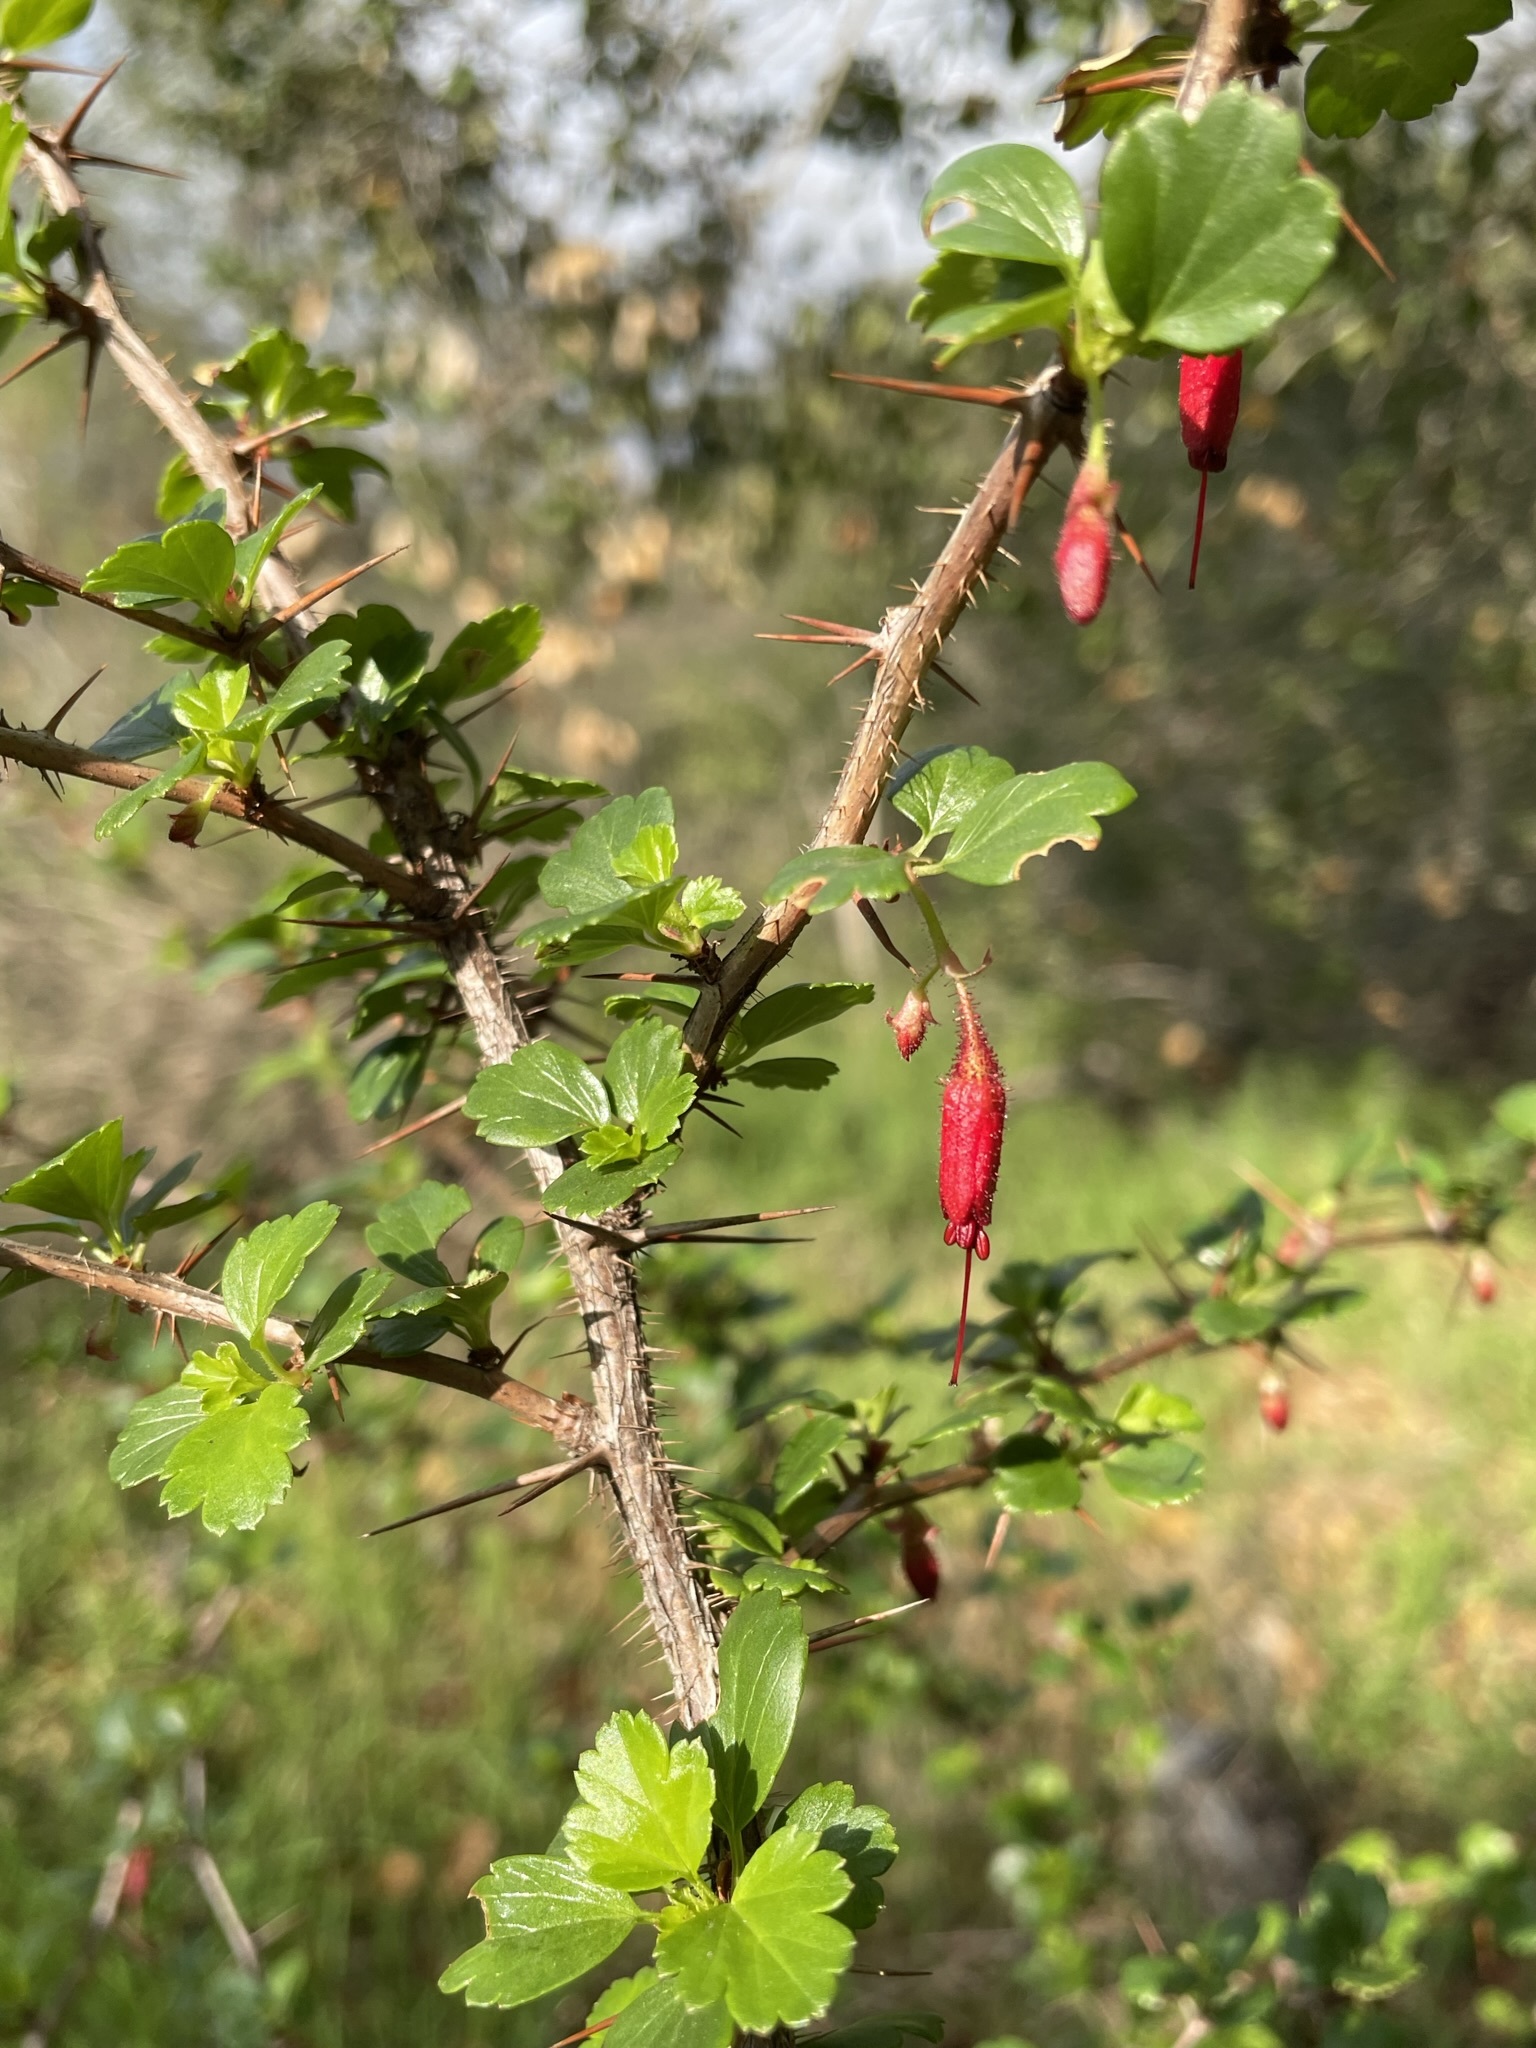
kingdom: Plantae
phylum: Tracheophyta
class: Magnoliopsida
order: Saxifragales
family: Grossulariaceae
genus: Ribes
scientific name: Ribes speciosum
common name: Fuchsia-flower gooseberry
